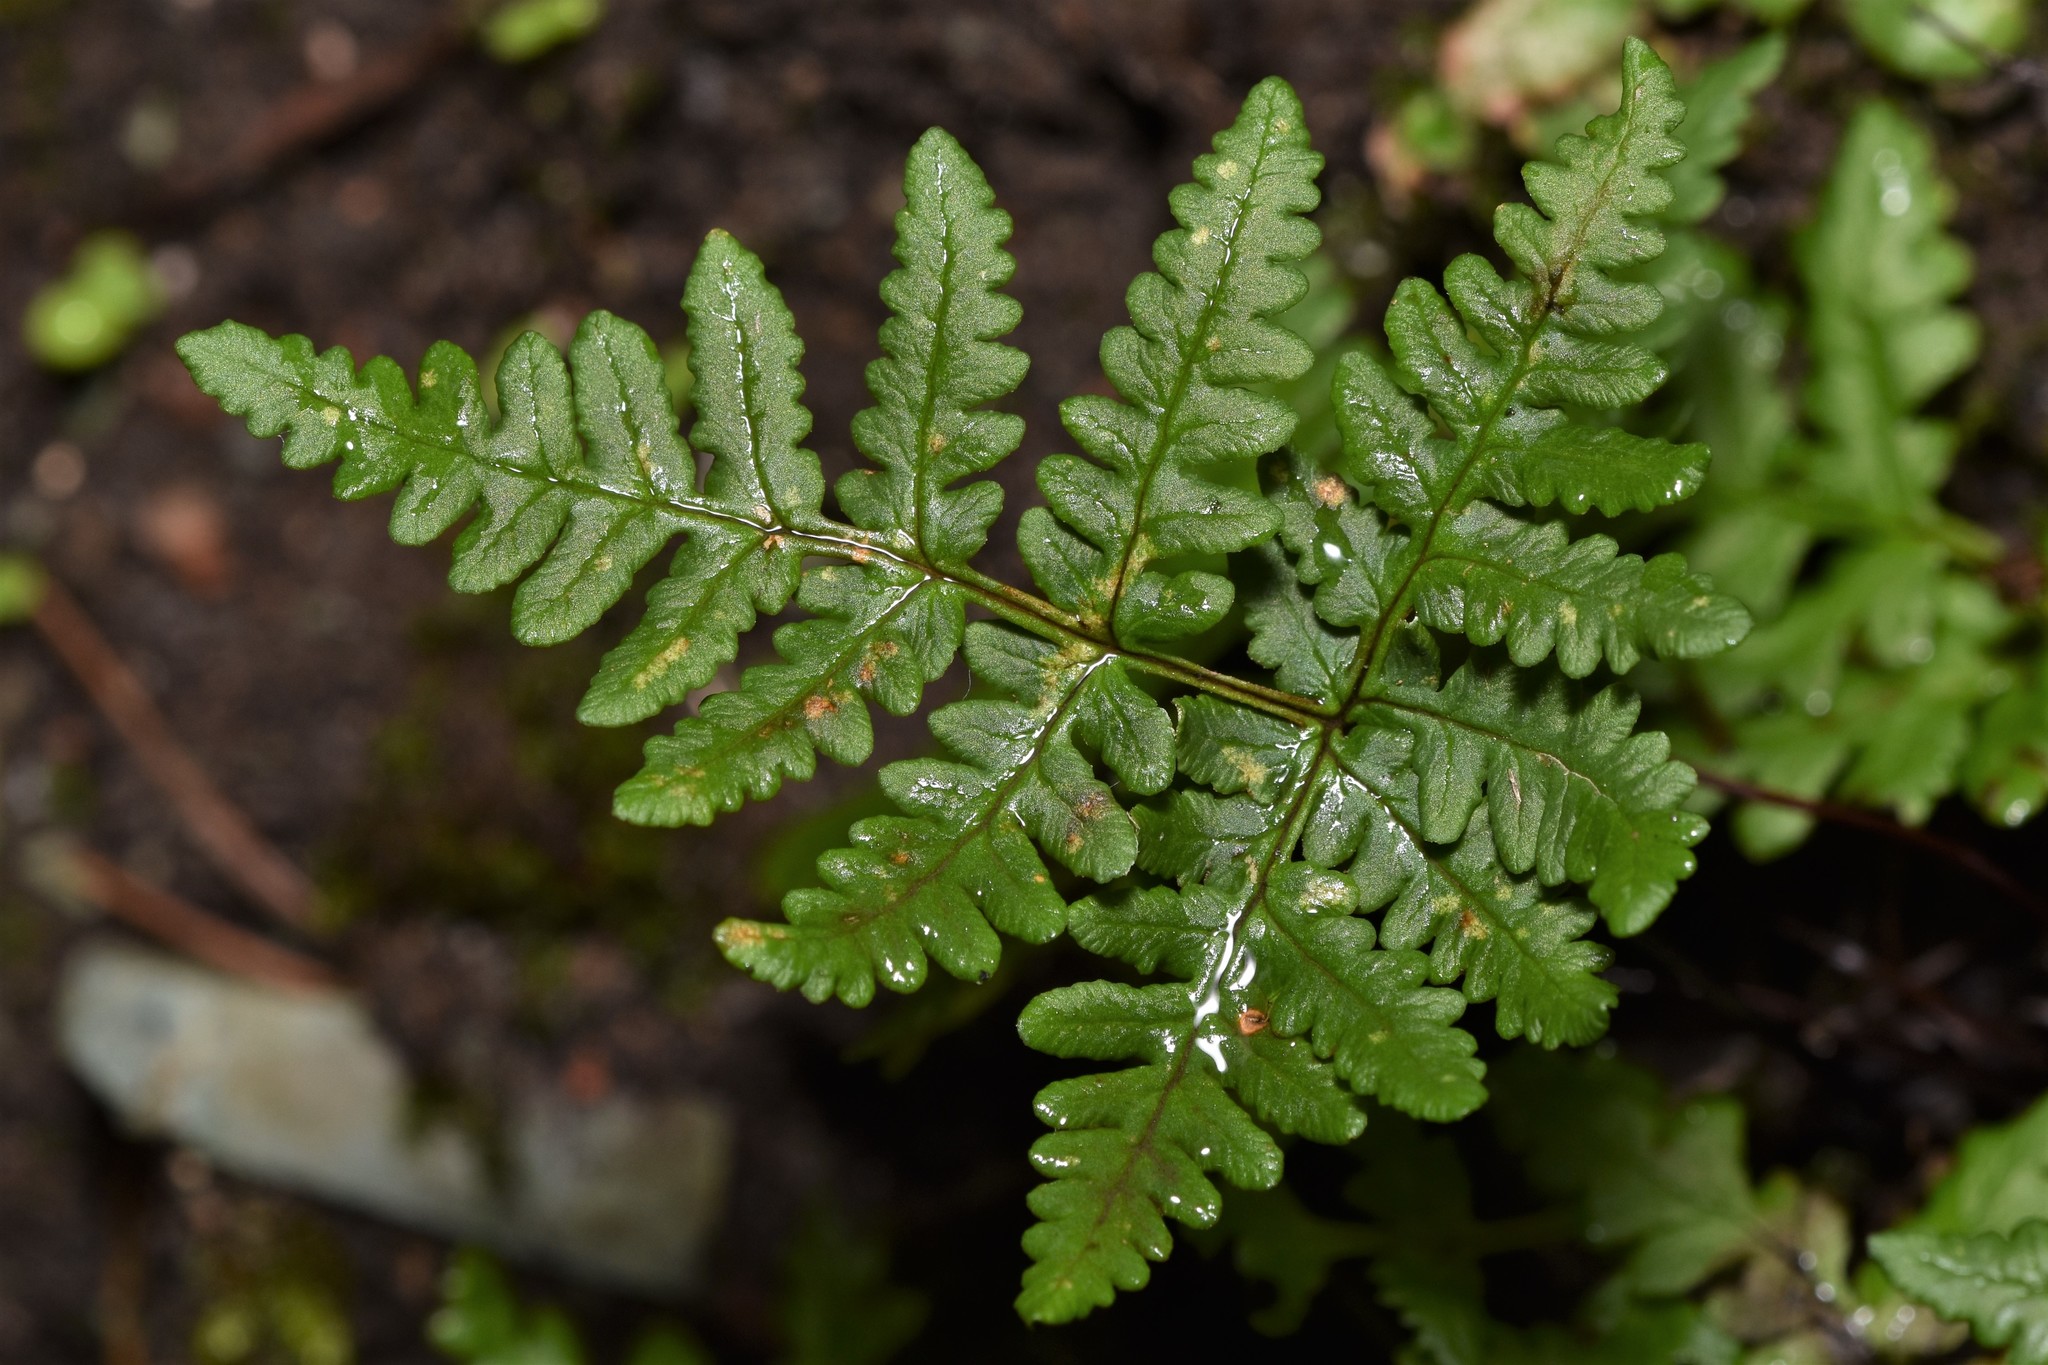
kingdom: Plantae
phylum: Tracheophyta
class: Polypodiopsida
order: Polypodiales
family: Pteridaceae
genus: Pentagramma
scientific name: Pentagramma triangularis
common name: Gold fern
